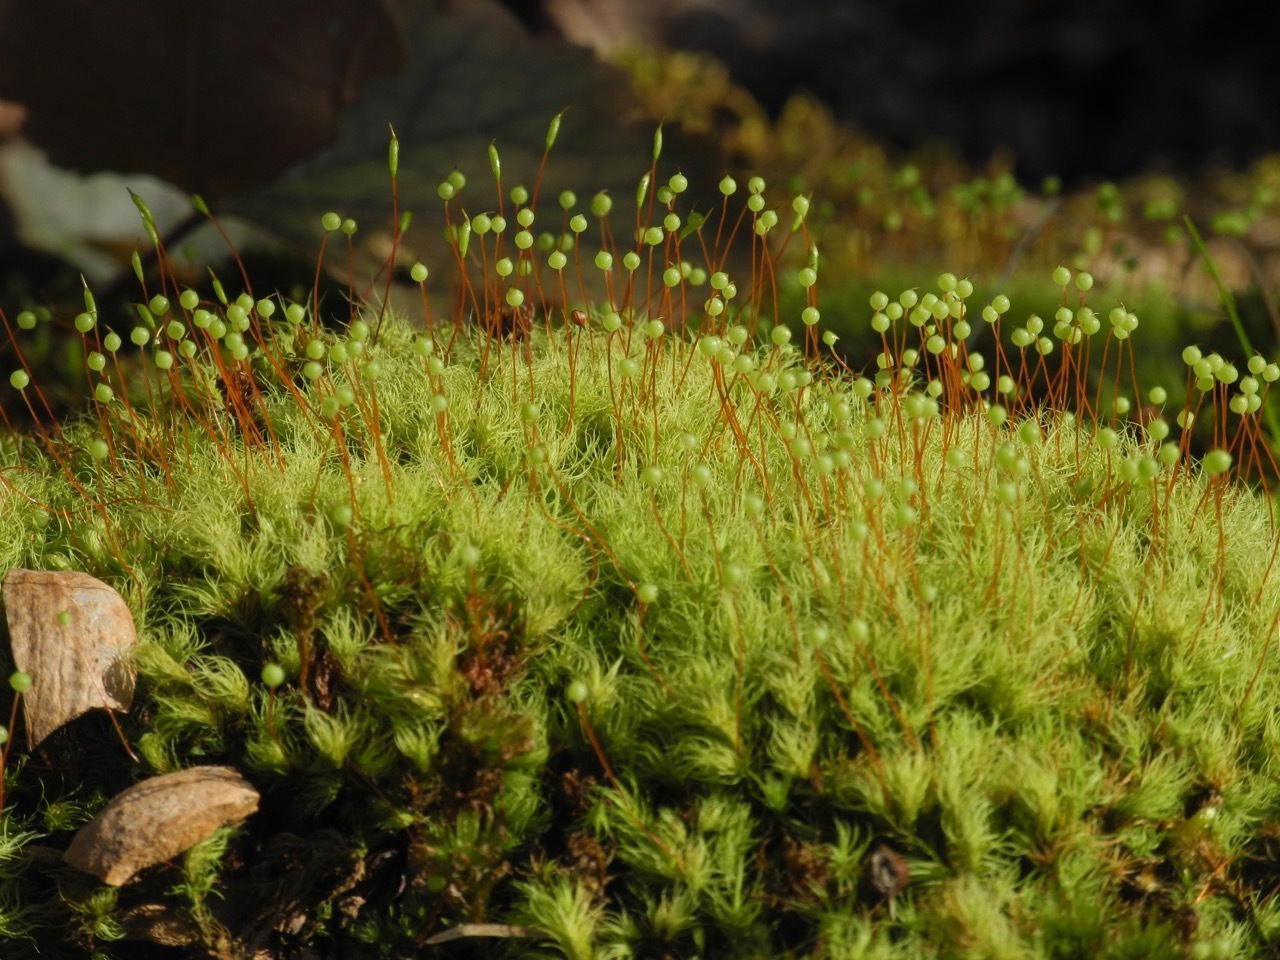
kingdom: Plantae
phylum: Bryophyta
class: Bryopsida
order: Bartramiales
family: Bartramiaceae
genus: Bartramia
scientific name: Bartramia ithyphylla
